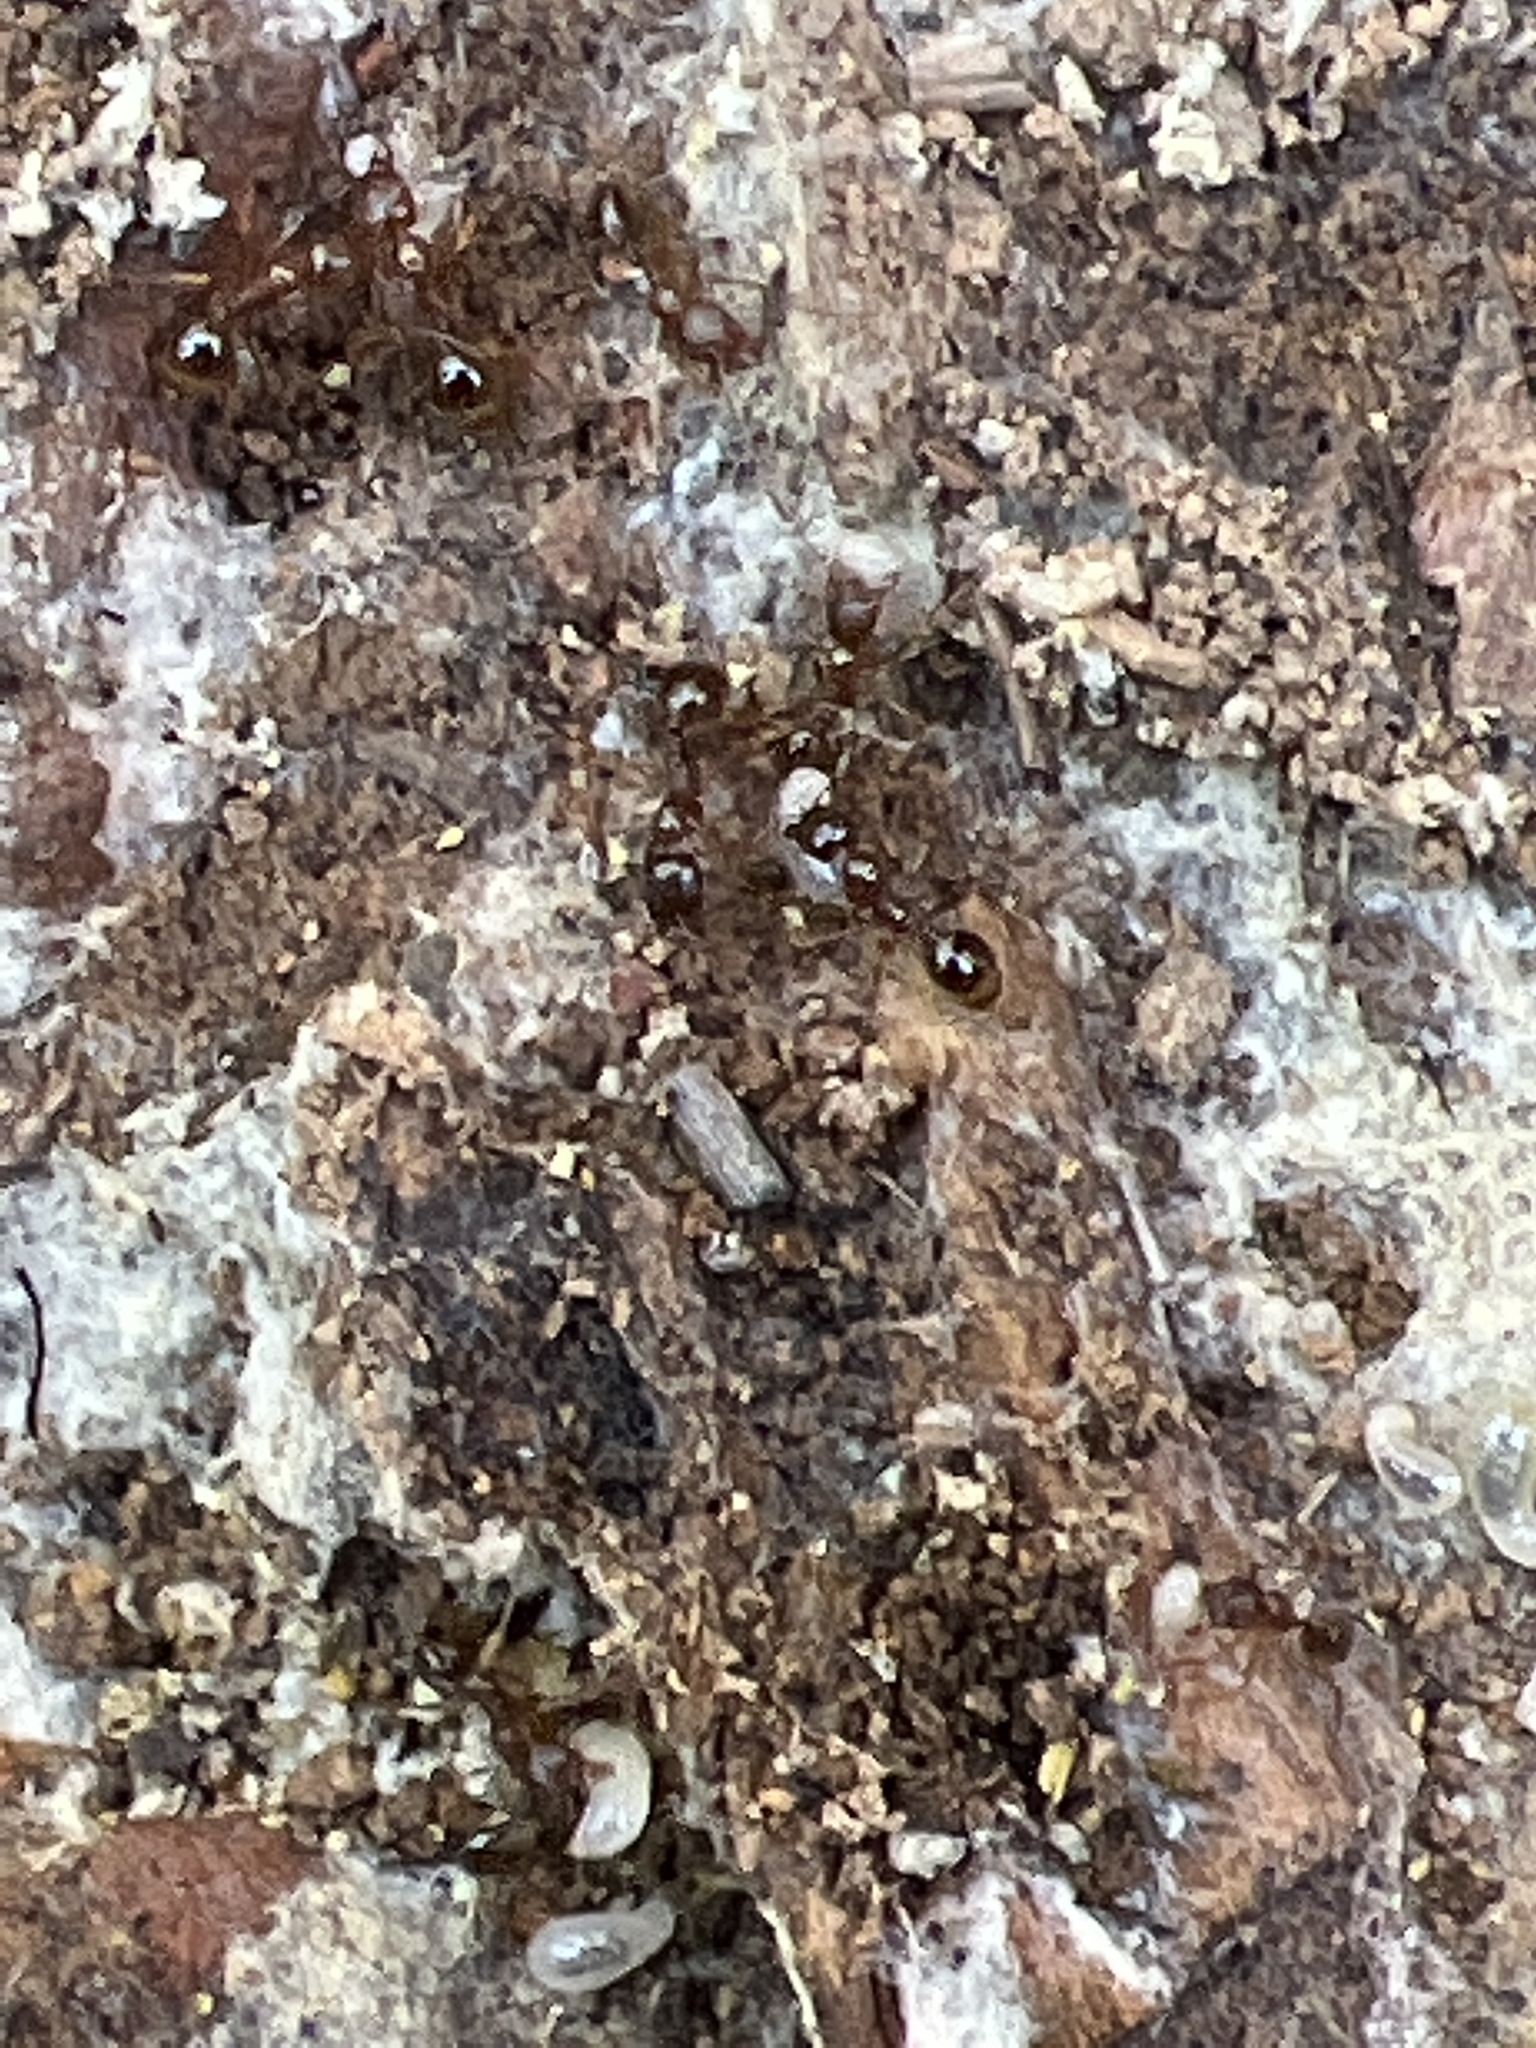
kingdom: Animalia
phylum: Arthropoda
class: Insecta
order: Hymenoptera
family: Formicidae
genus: Aphaenogaster
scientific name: Aphaenogaster occidentalis
